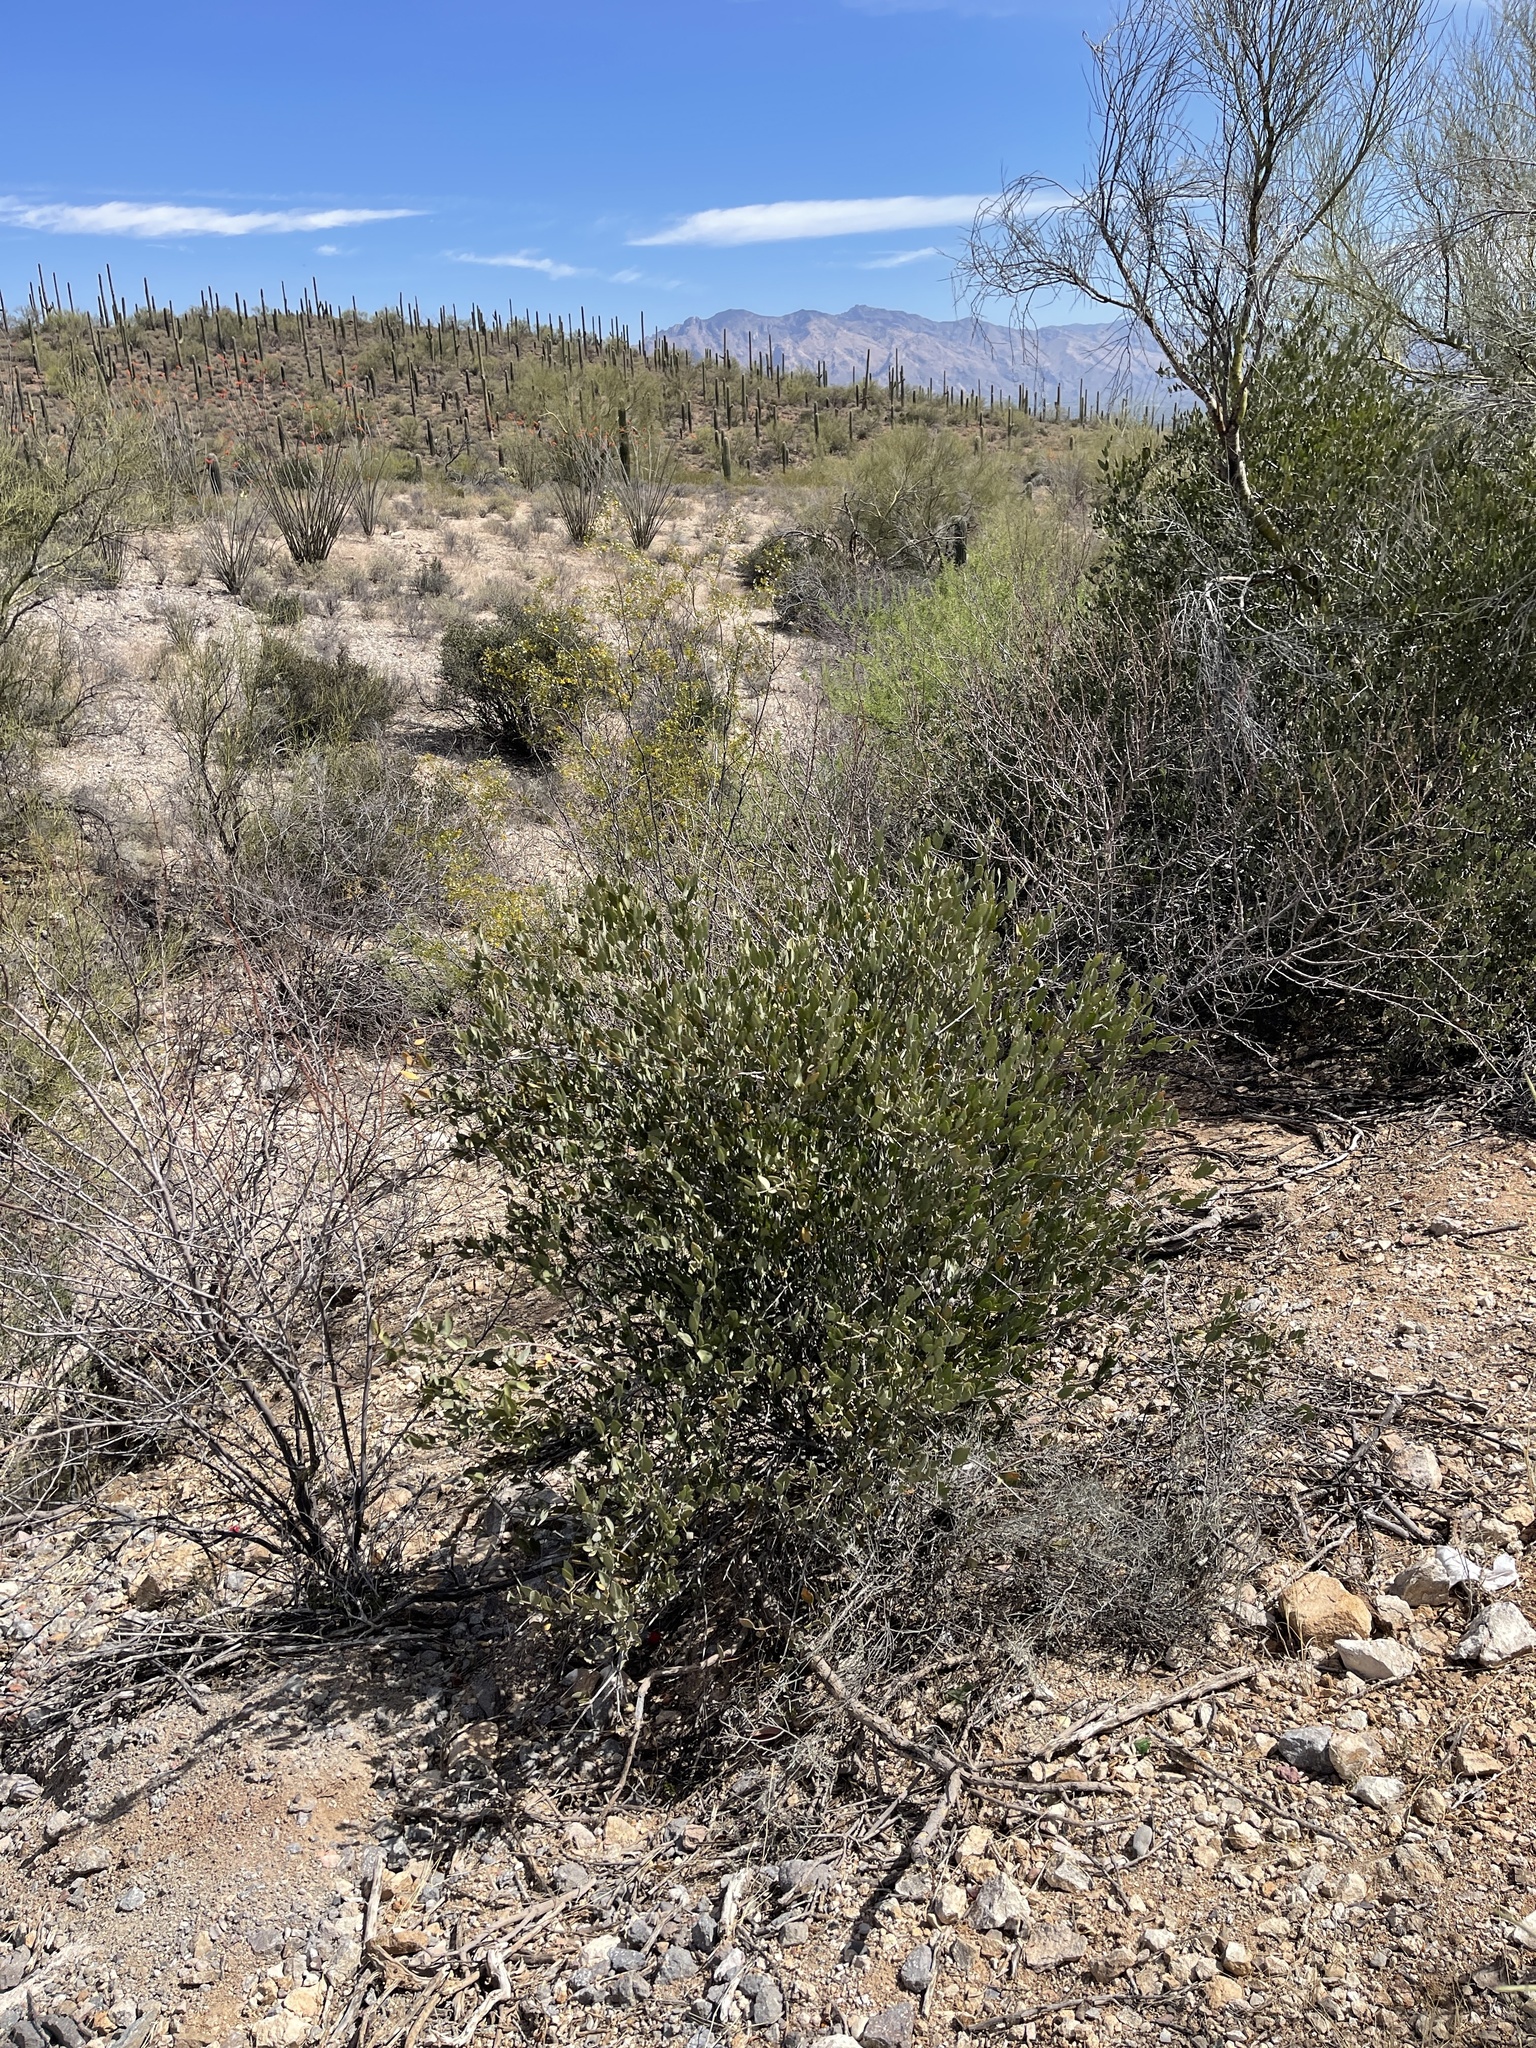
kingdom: Plantae
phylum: Tracheophyta
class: Magnoliopsida
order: Caryophyllales
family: Simmondsiaceae
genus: Simmondsia
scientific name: Simmondsia chinensis
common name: Jojoba
